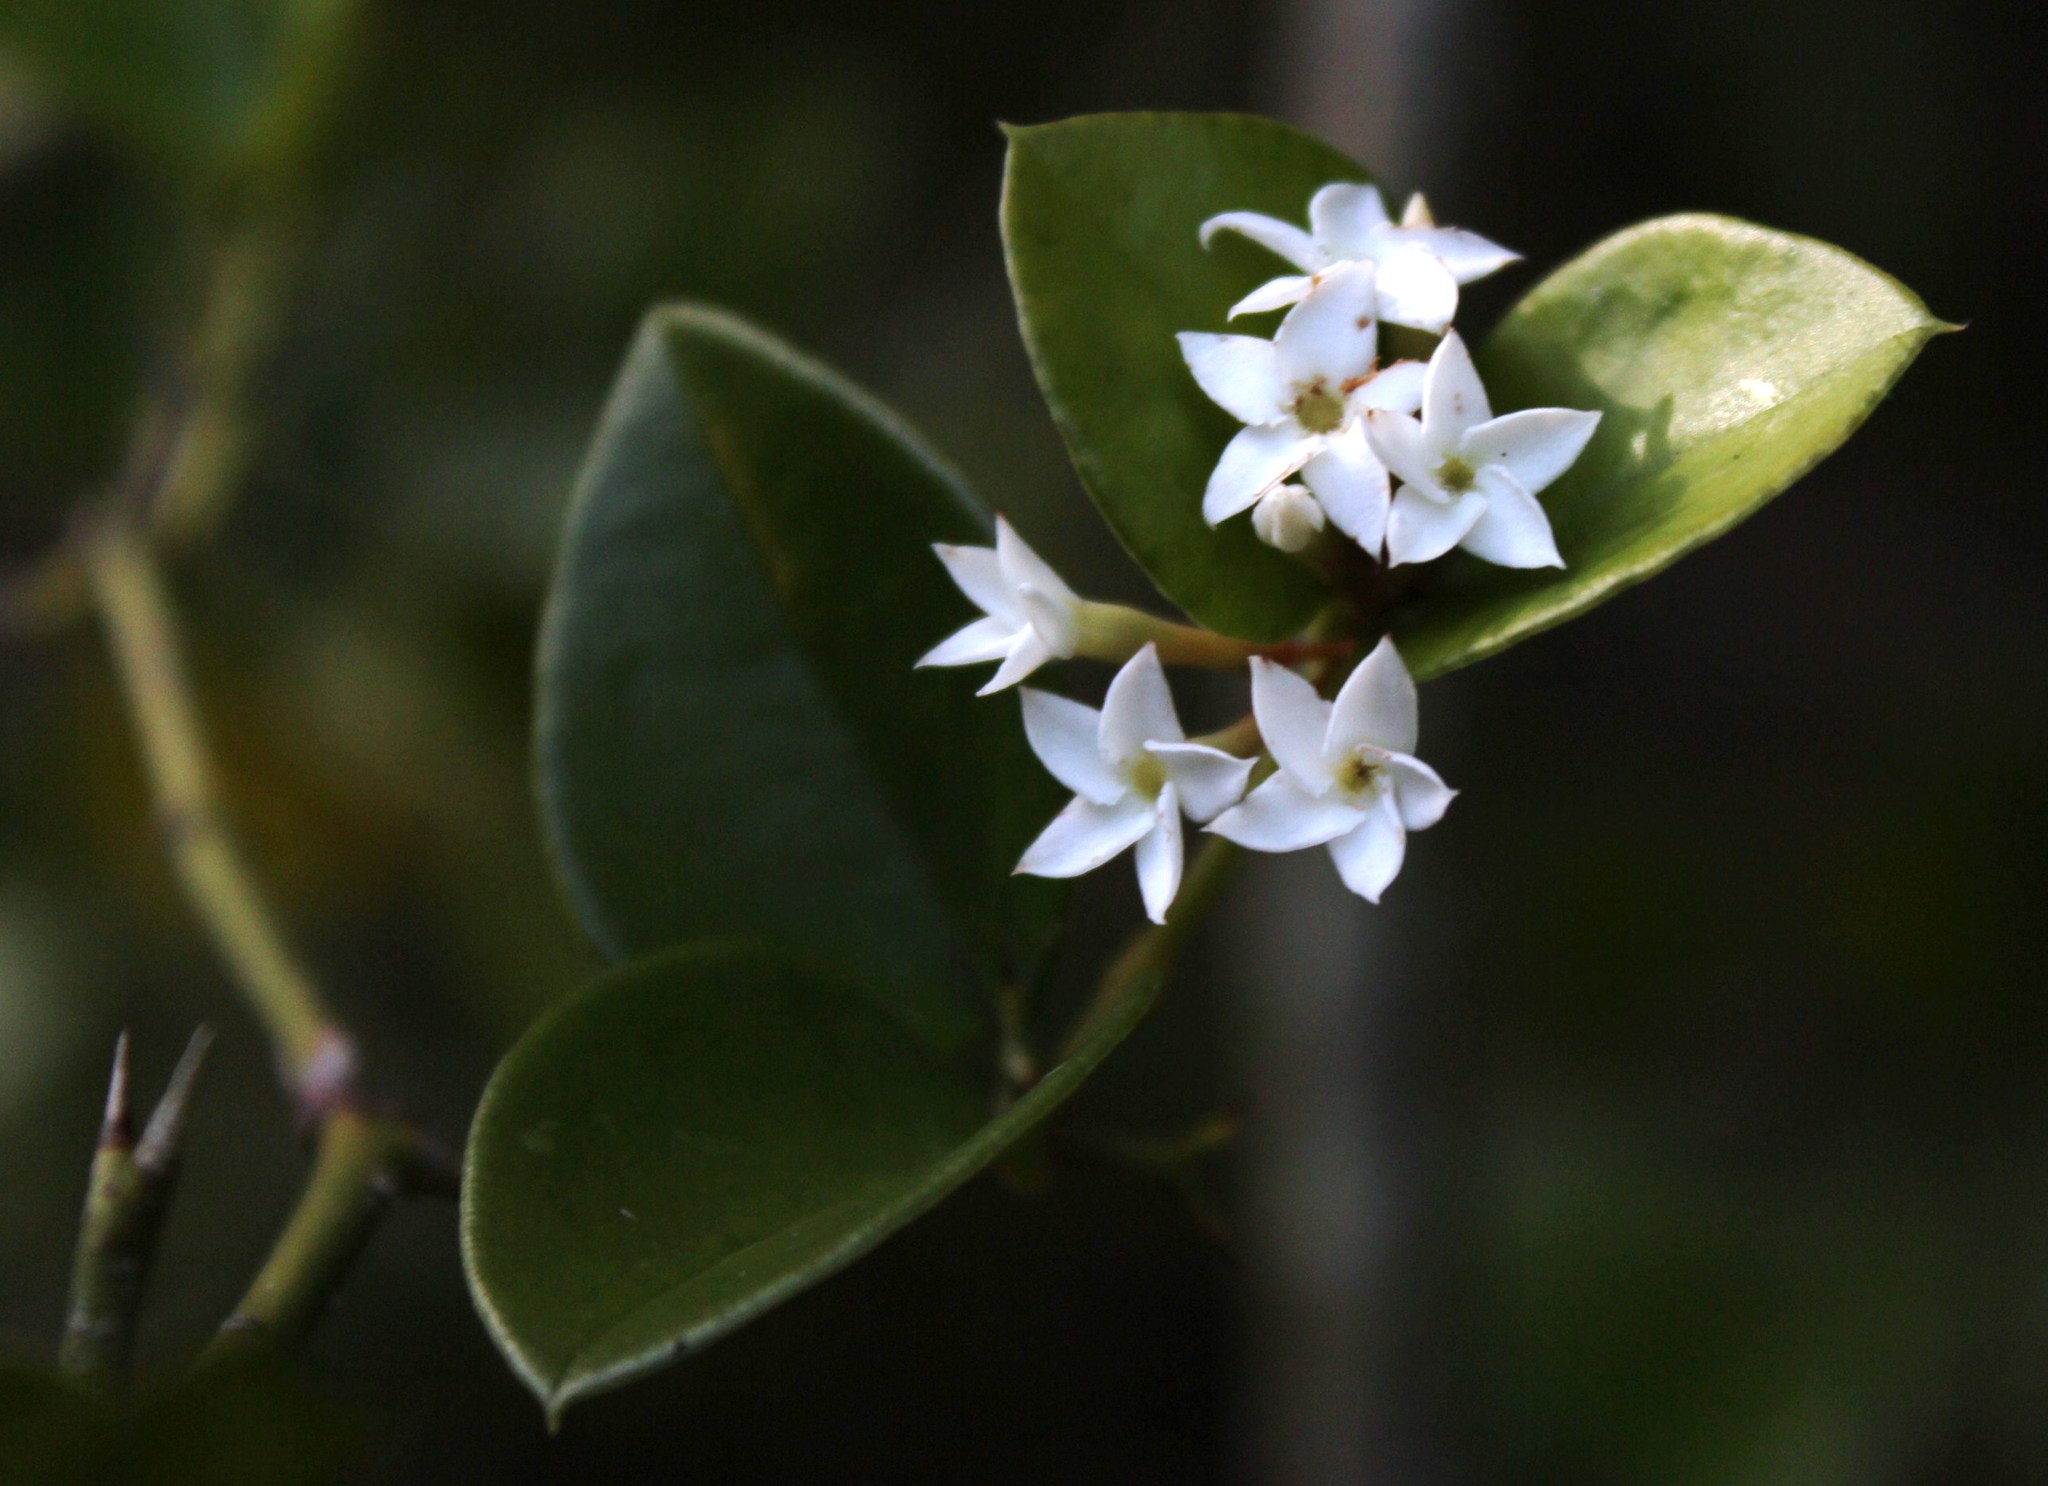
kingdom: Plantae
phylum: Tracheophyta
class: Magnoliopsida
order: Gentianales
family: Apocynaceae
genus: Carissa
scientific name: Carissa bispinosa
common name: Forest num-num
